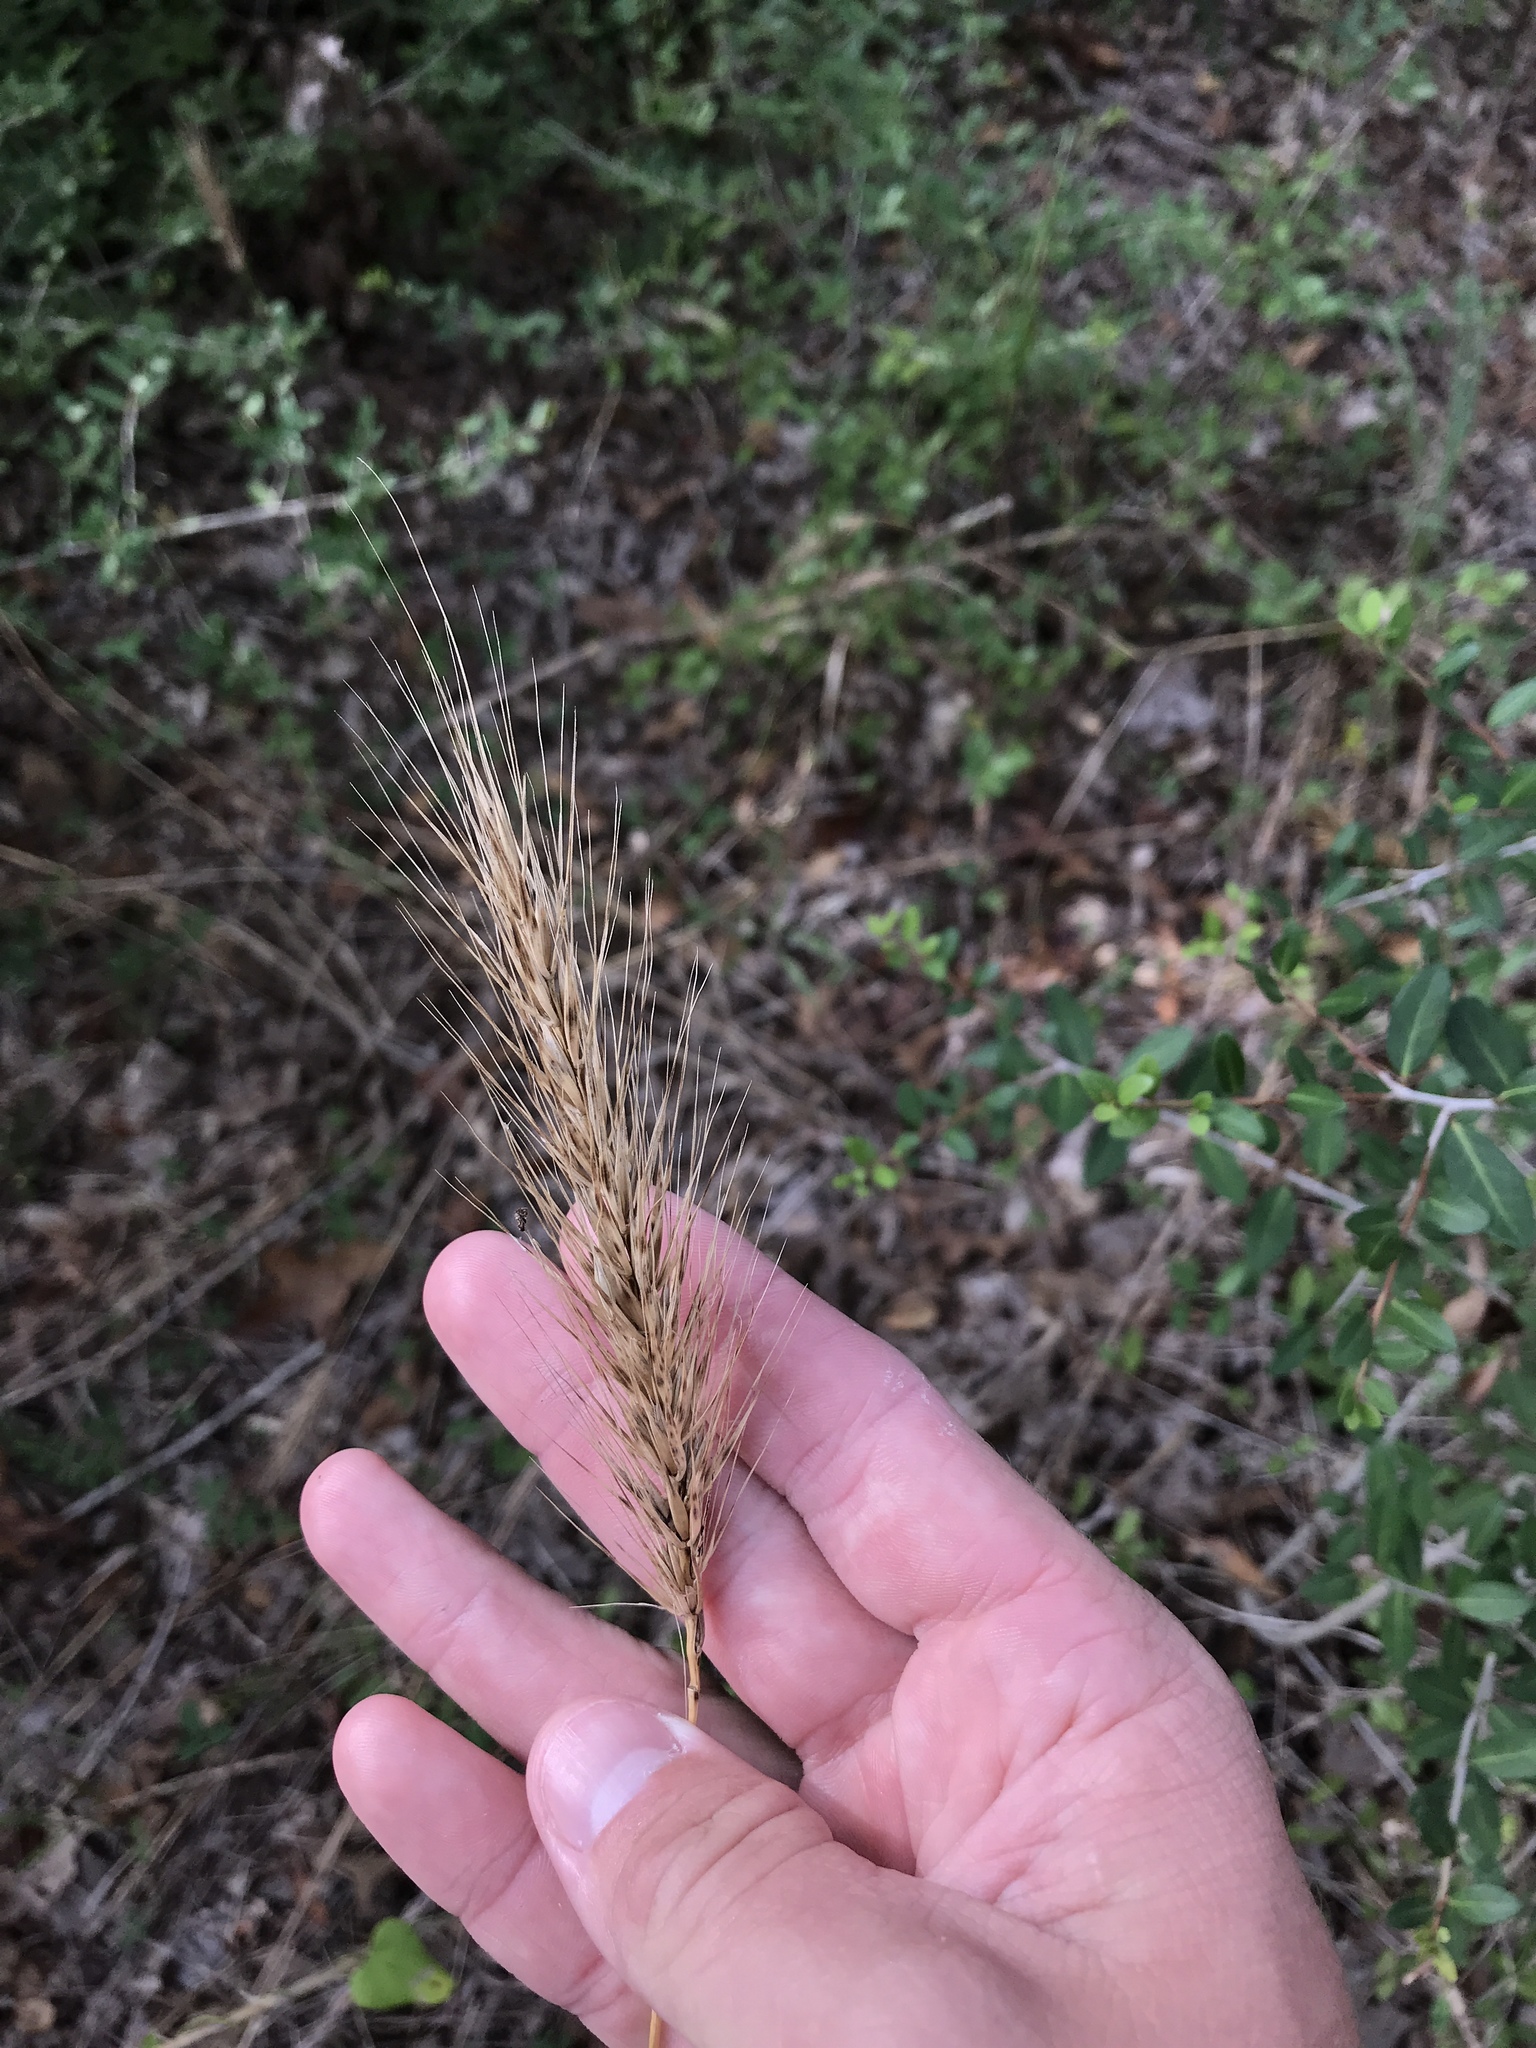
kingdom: Plantae
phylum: Tracheophyta
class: Liliopsida
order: Poales
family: Poaceae
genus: Elymus
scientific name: Elymus canadensis
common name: Canada wild rye
